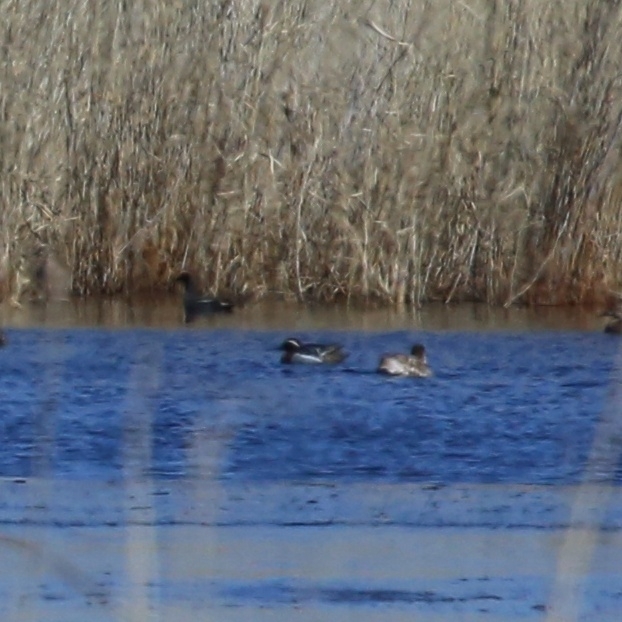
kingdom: Animalia
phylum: Chordata
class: Aves
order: Anseriformes
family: Anatidae
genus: Spatula
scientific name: Spatula querquedula
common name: Garganey
